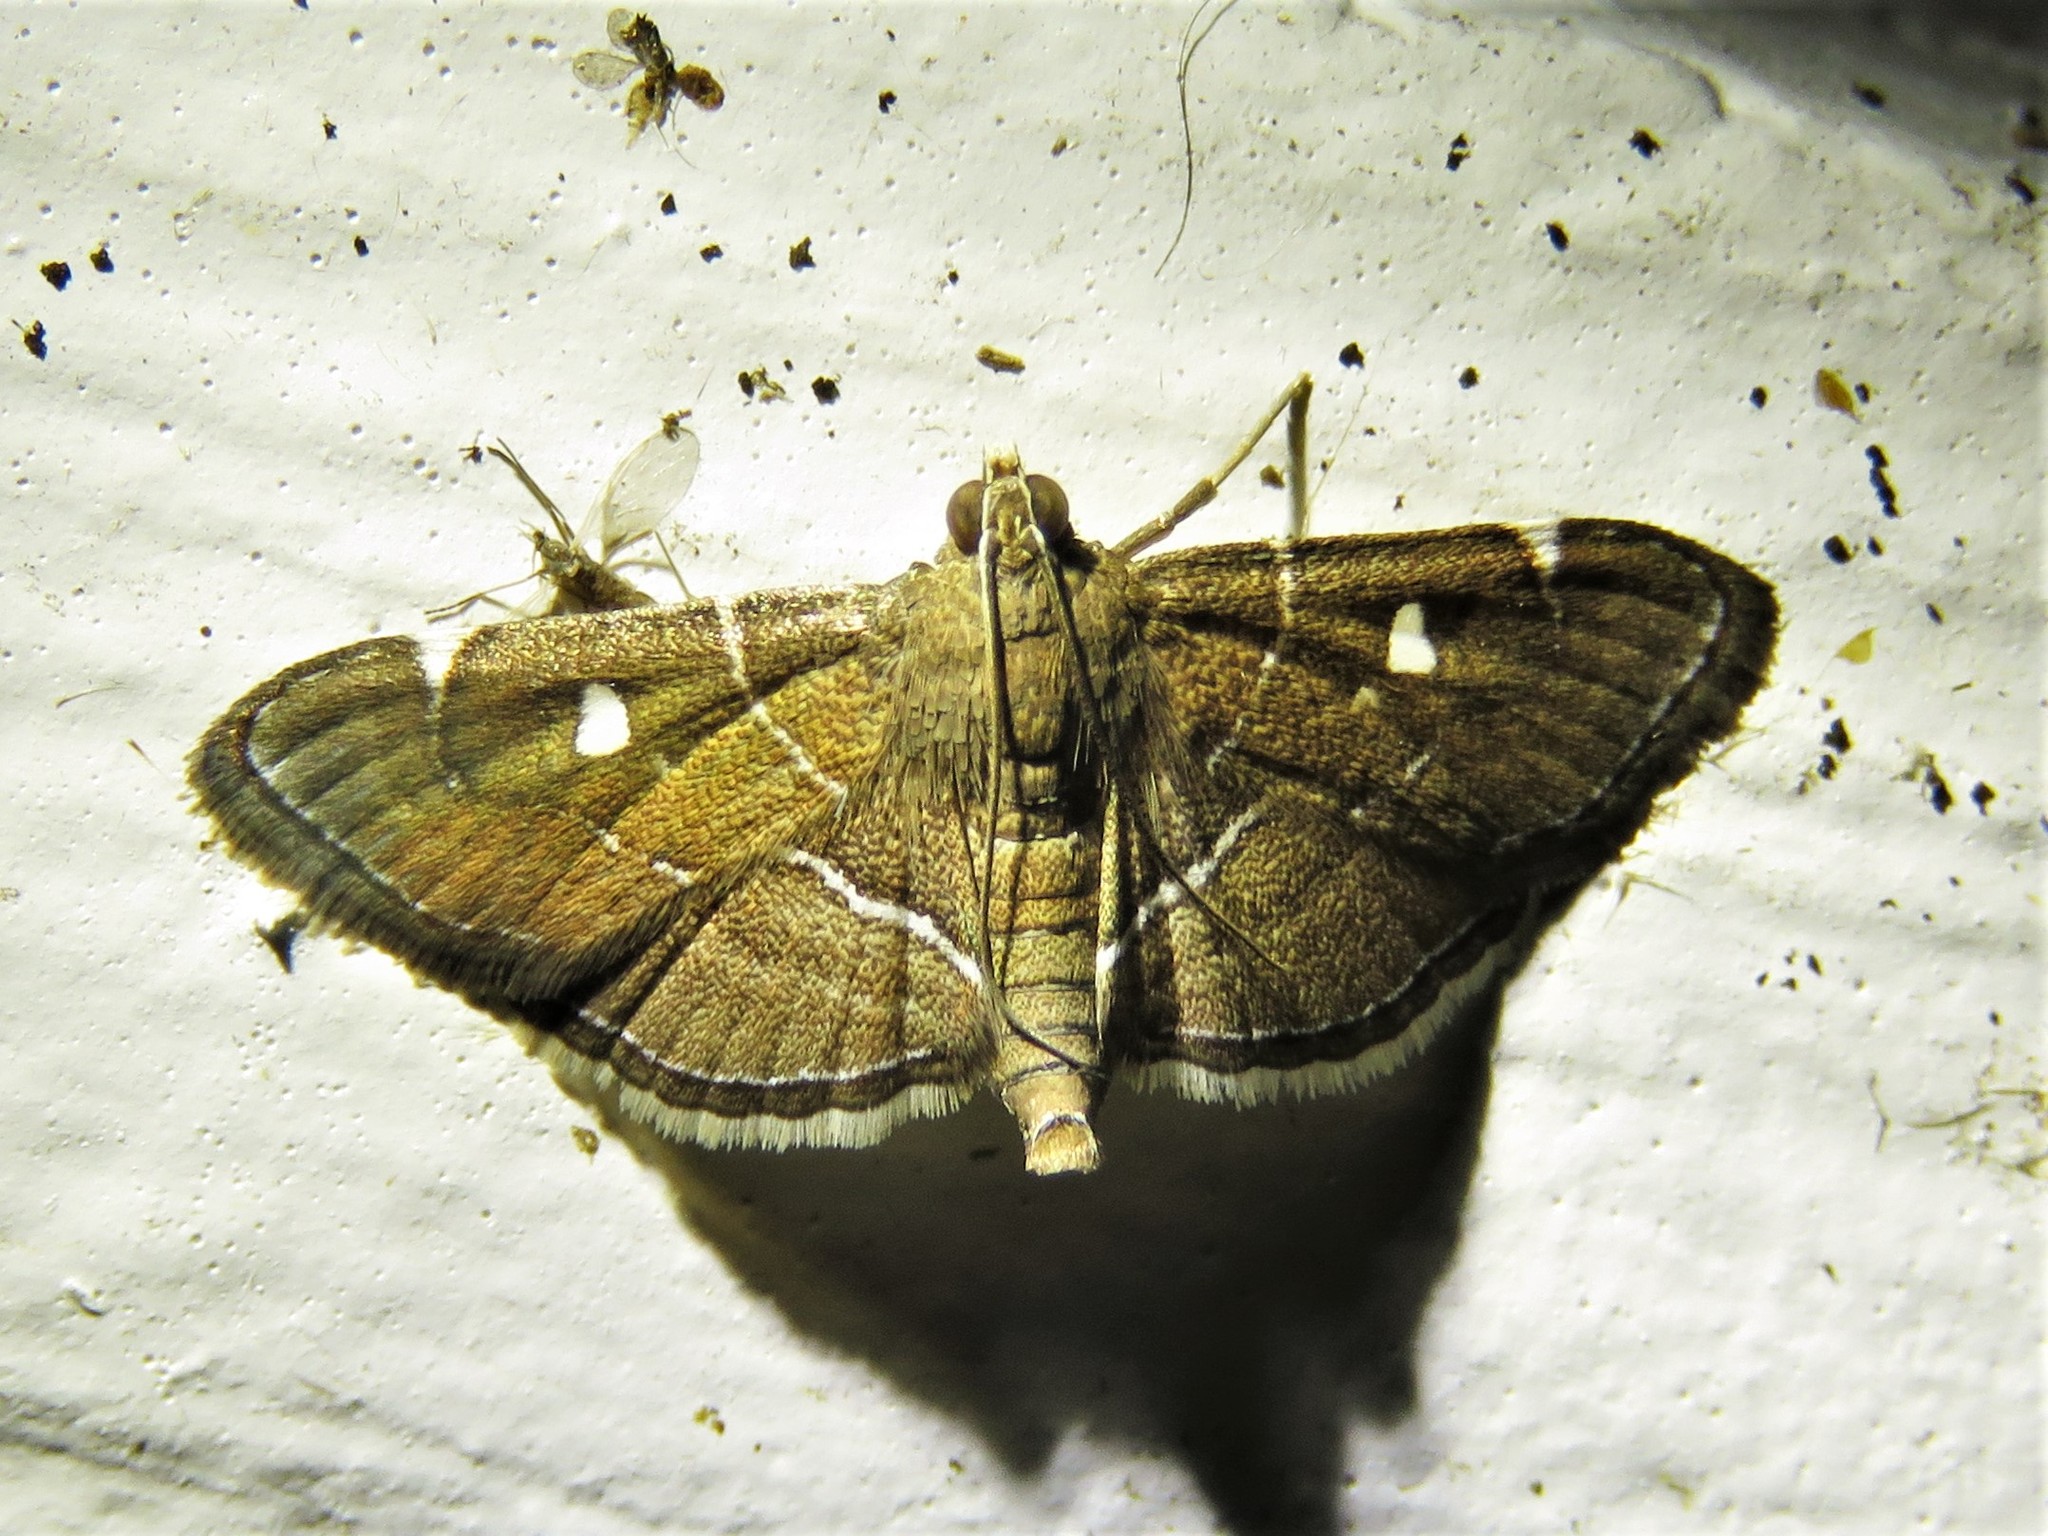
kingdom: Animalia
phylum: Arthropoda
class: Insecta
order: Lepidoptera
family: Crambidae
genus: Lamprosema
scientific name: Lamprosema victoriae
